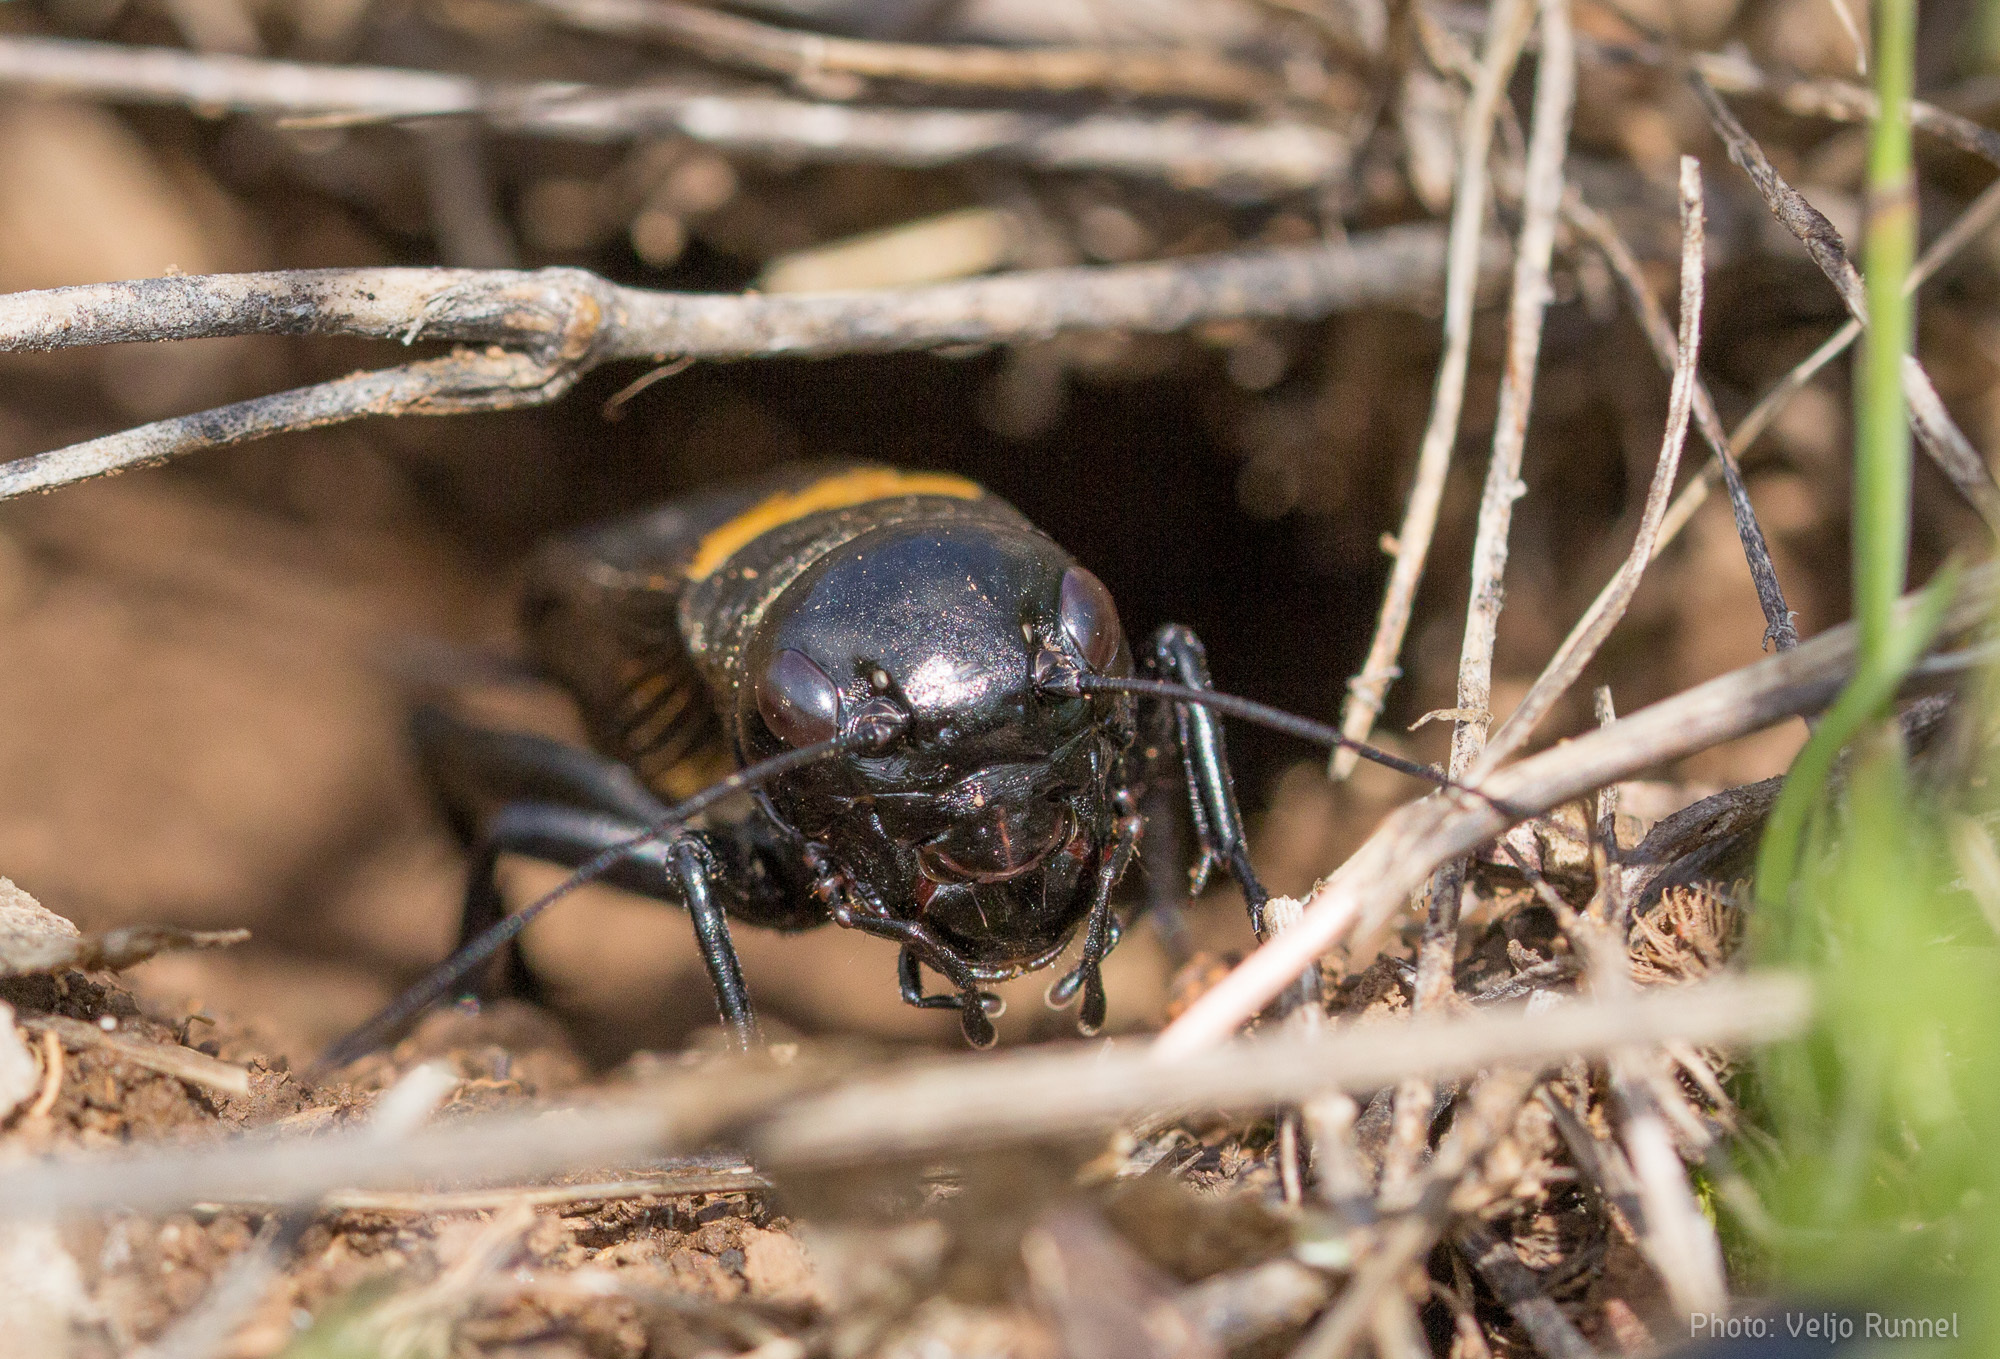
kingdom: Animalia
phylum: Arthropoda
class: Insecta
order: Orthoptera
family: Gryllidae
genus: Gryllus
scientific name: Gryllus campestris
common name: Field cricket
